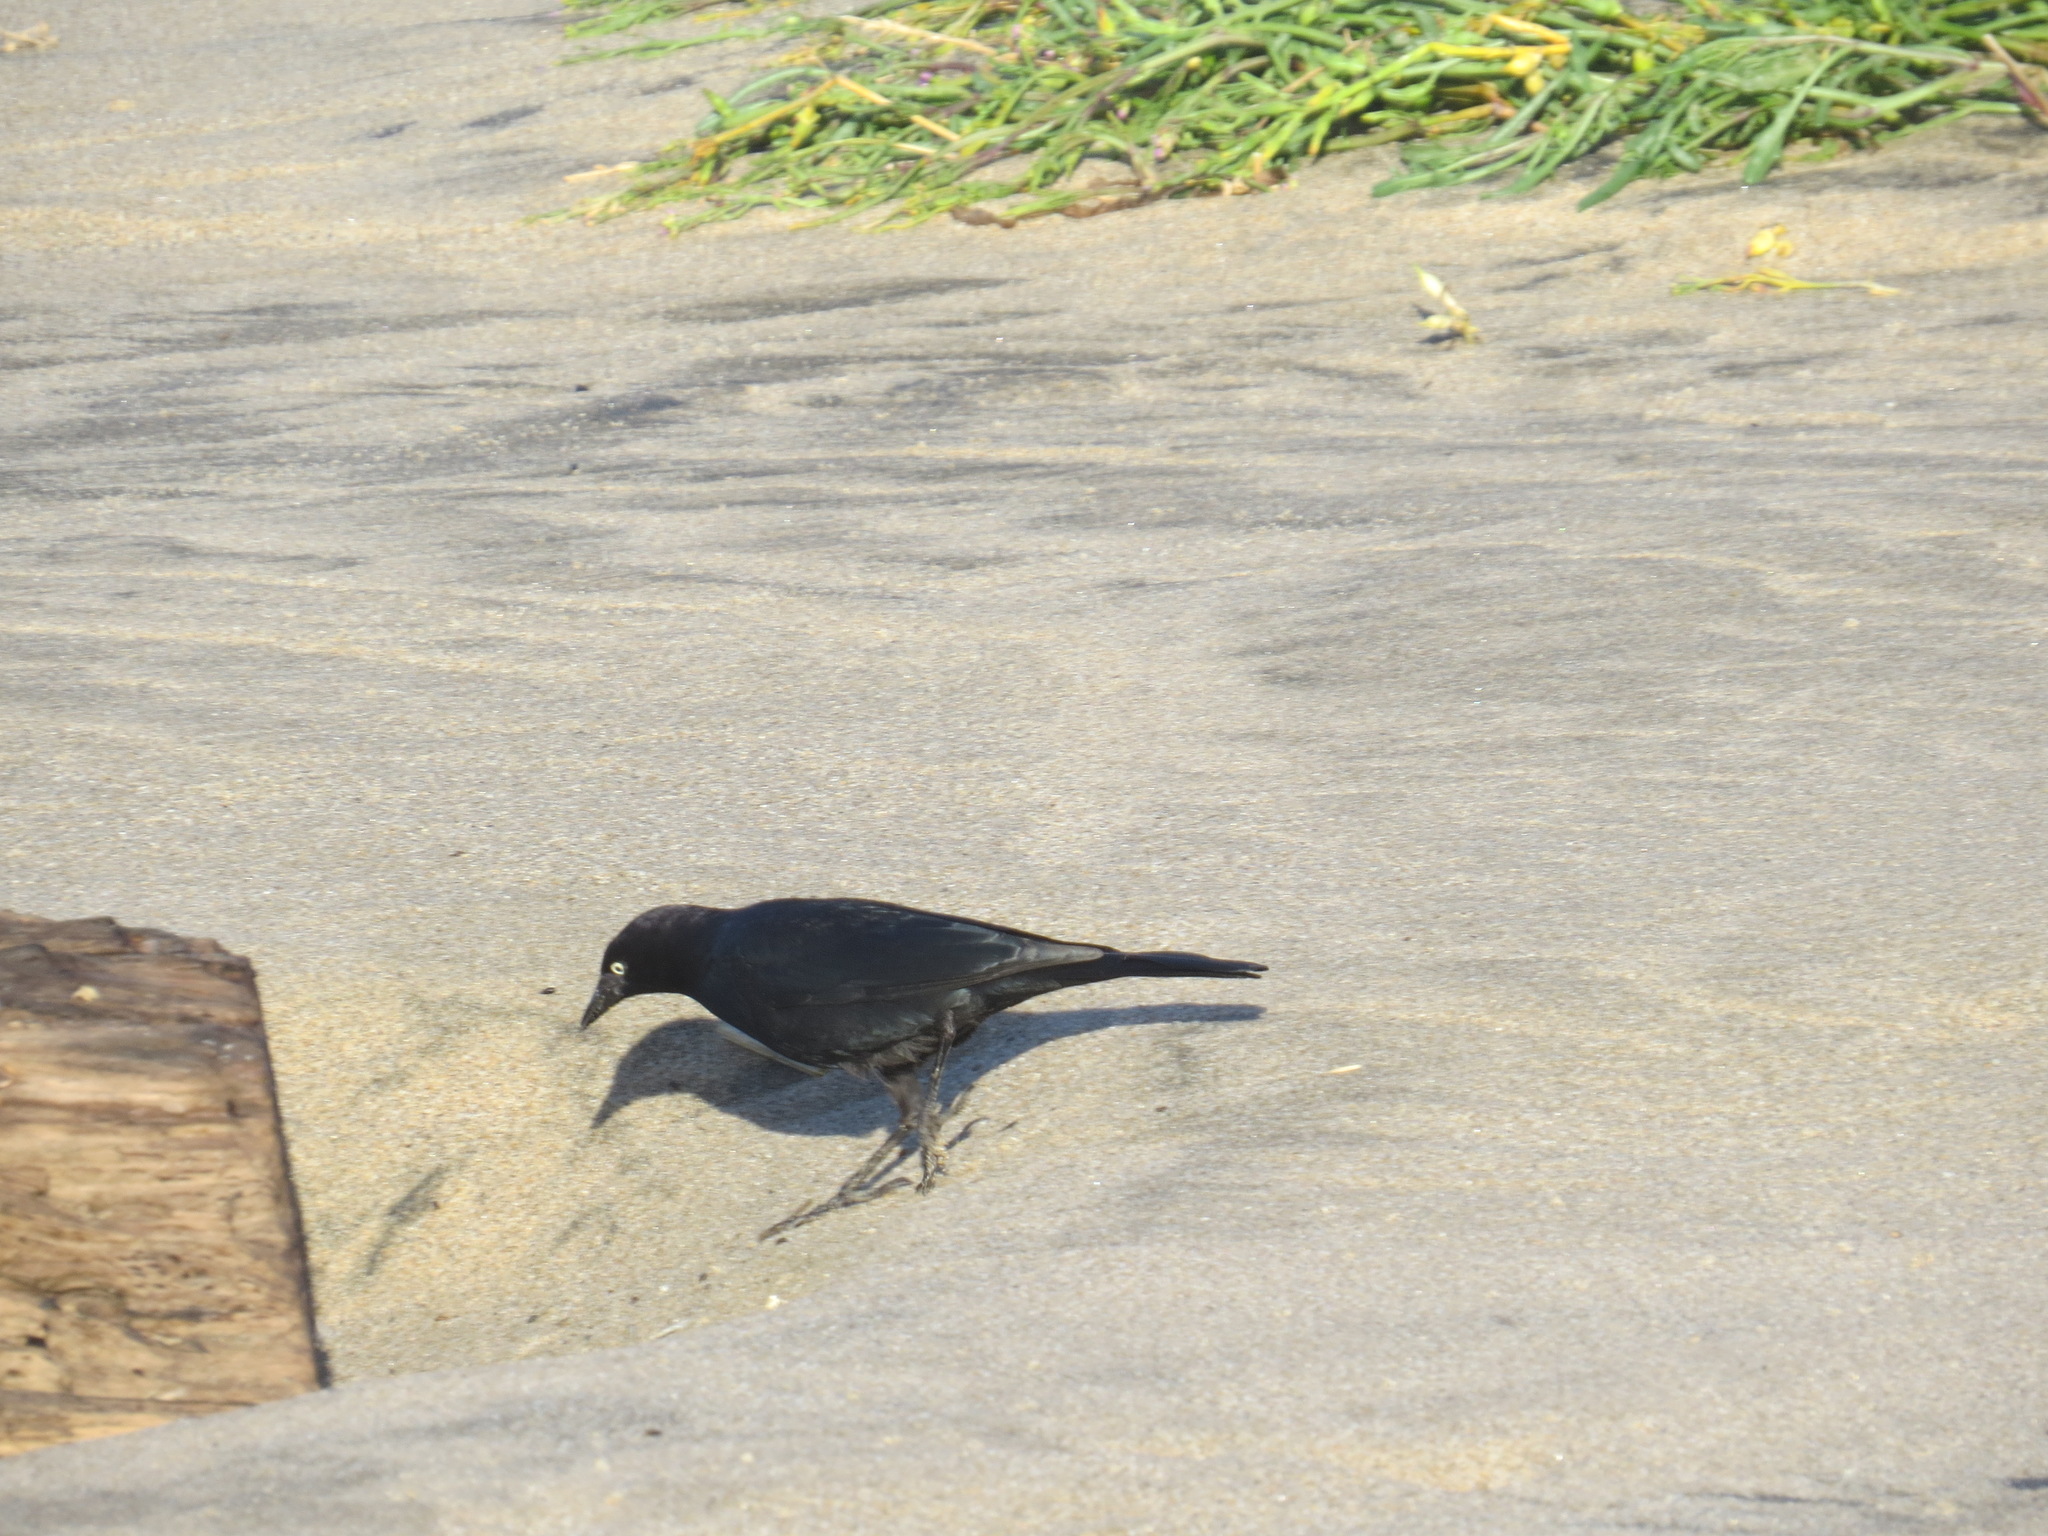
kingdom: Animalia
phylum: Chordata
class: Aves
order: Passeriformes
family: Icteridae
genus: Euphagus
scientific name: Euphagus cyanocephalus
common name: Brewer's blackbird
